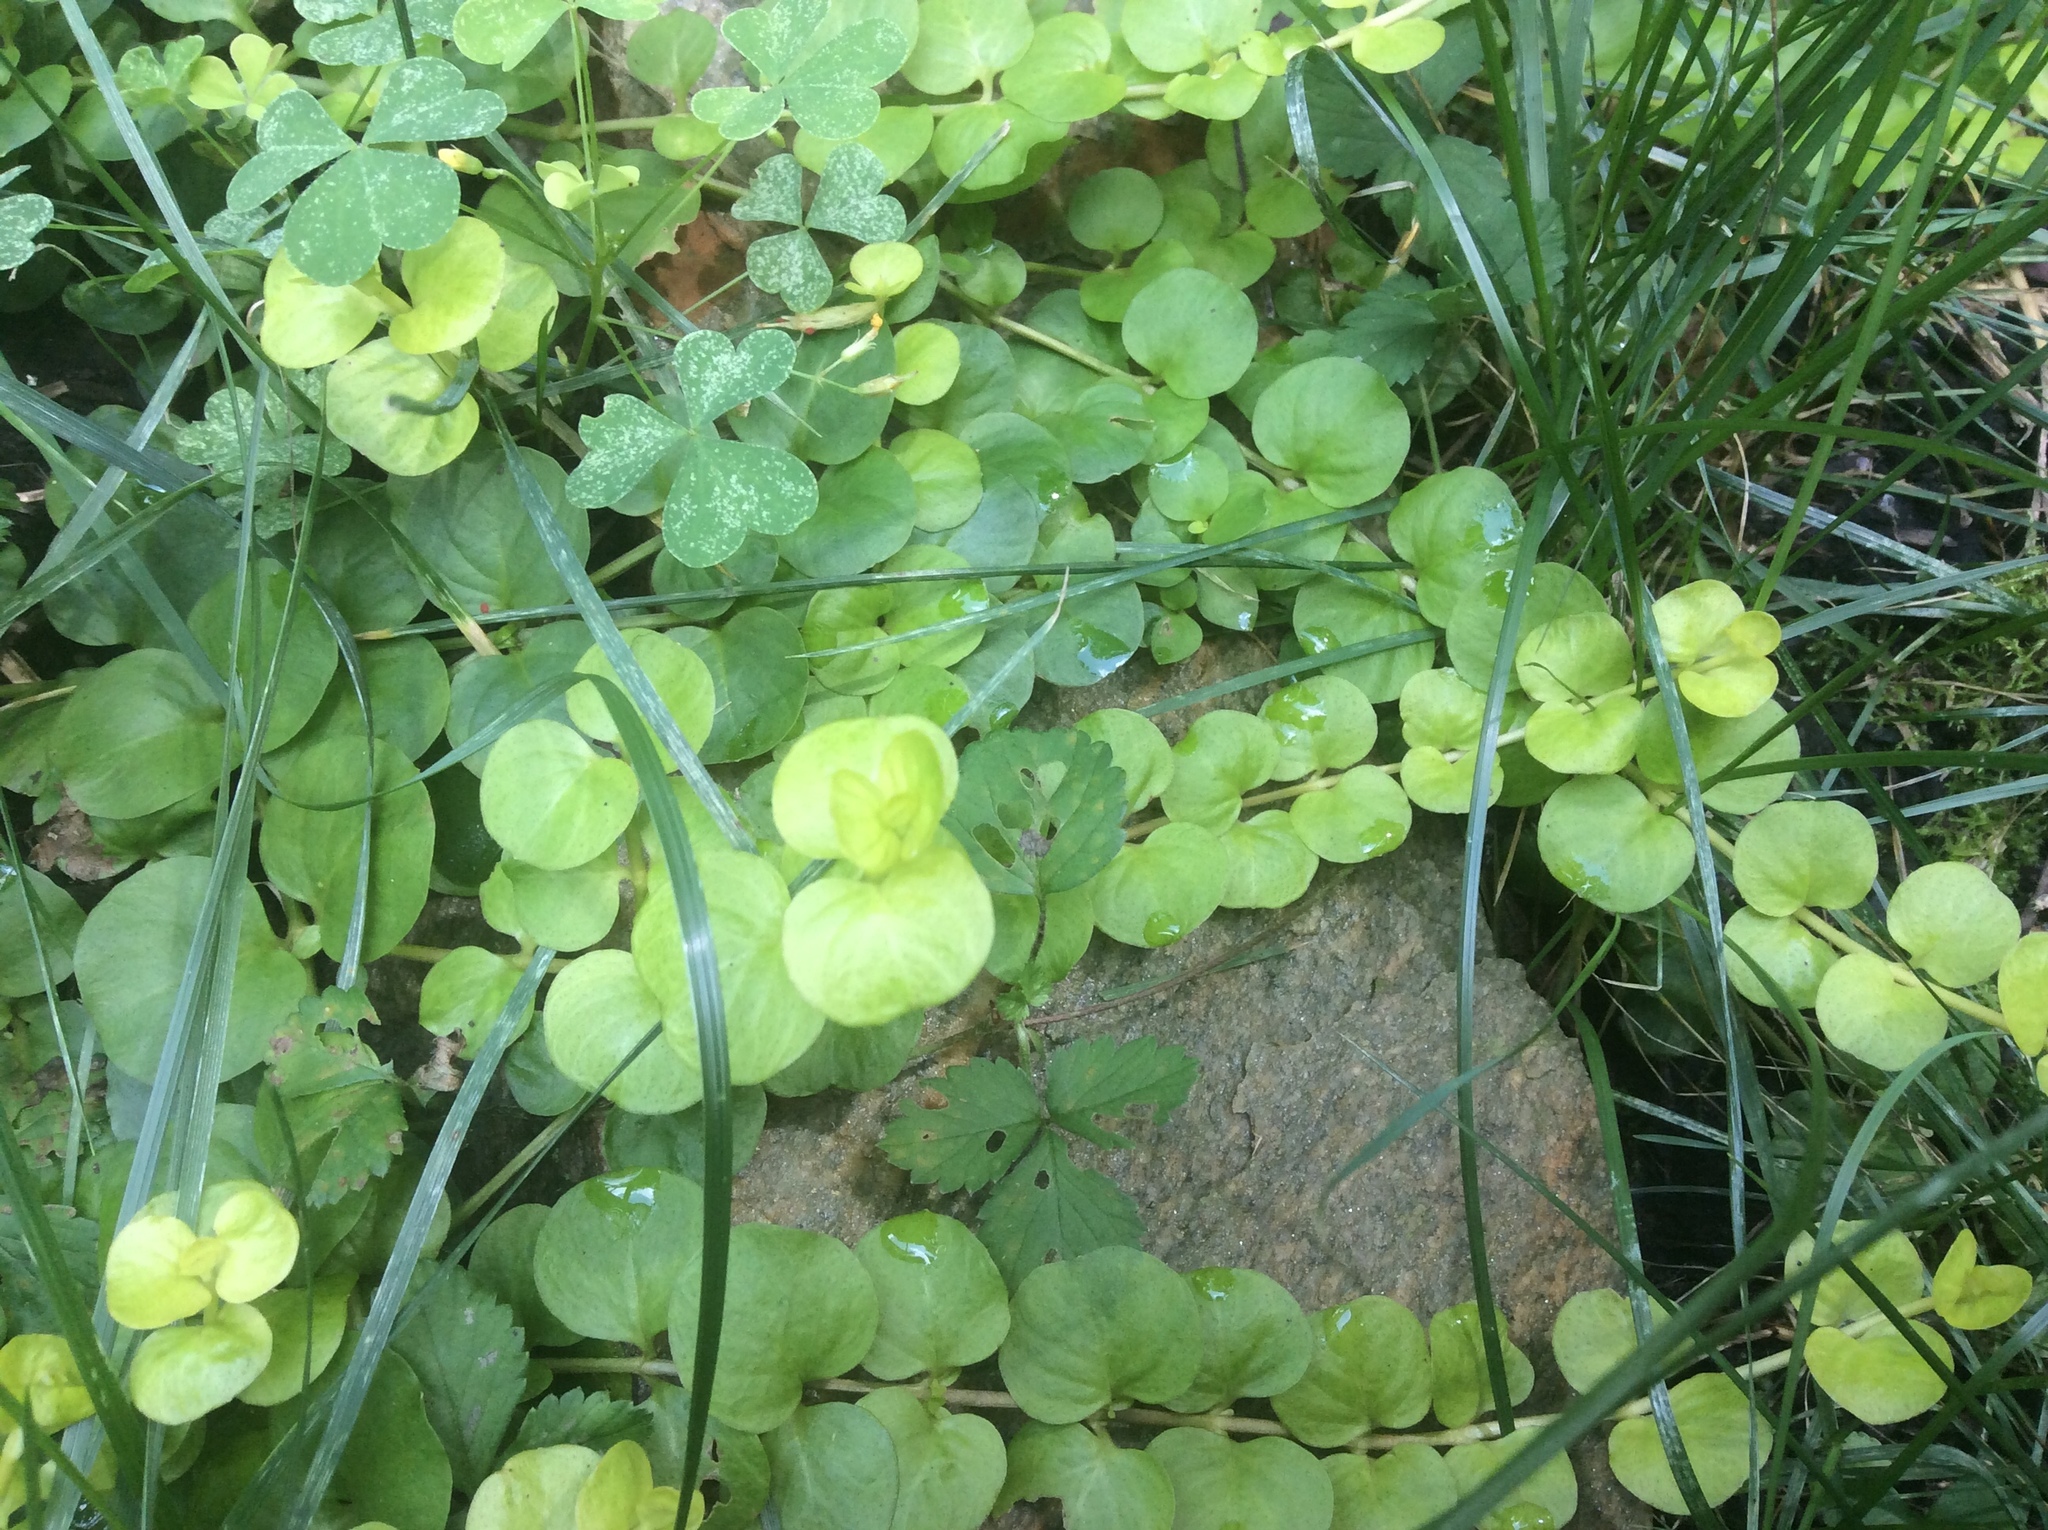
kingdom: Plantae
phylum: Tracheophyta
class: Magnoliopsida
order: Ericales
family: Primulaceae
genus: Lysimachia
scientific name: Lysimachia nummularia
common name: Moneywort
